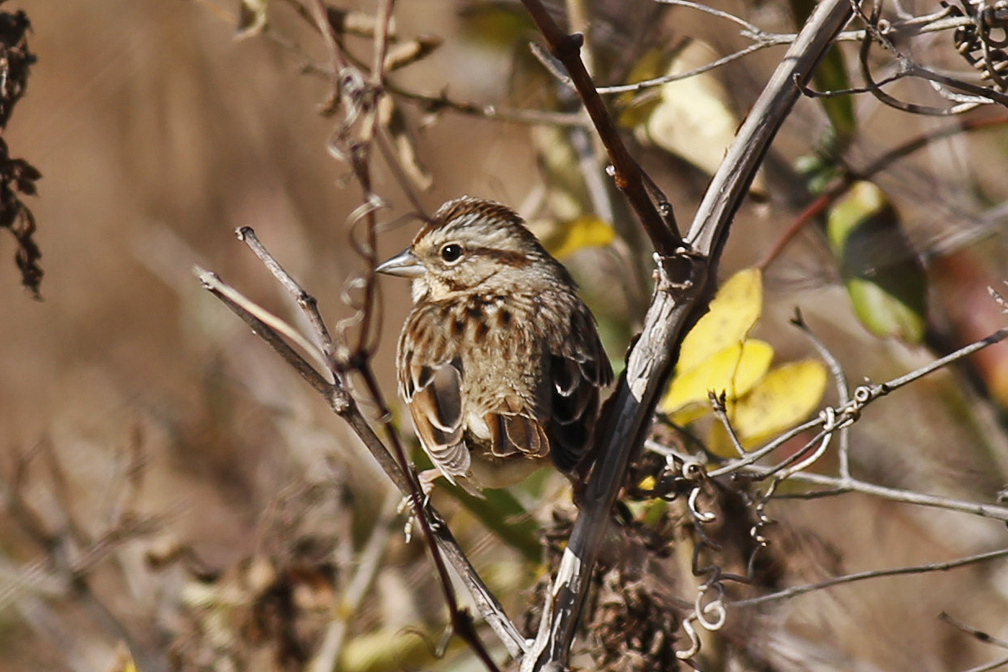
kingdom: Animalia
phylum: Chordata
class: Aves
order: Passeriformes
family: Passerellidae
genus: Melospiza
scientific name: Melospiza melodia
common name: Song sparrow
